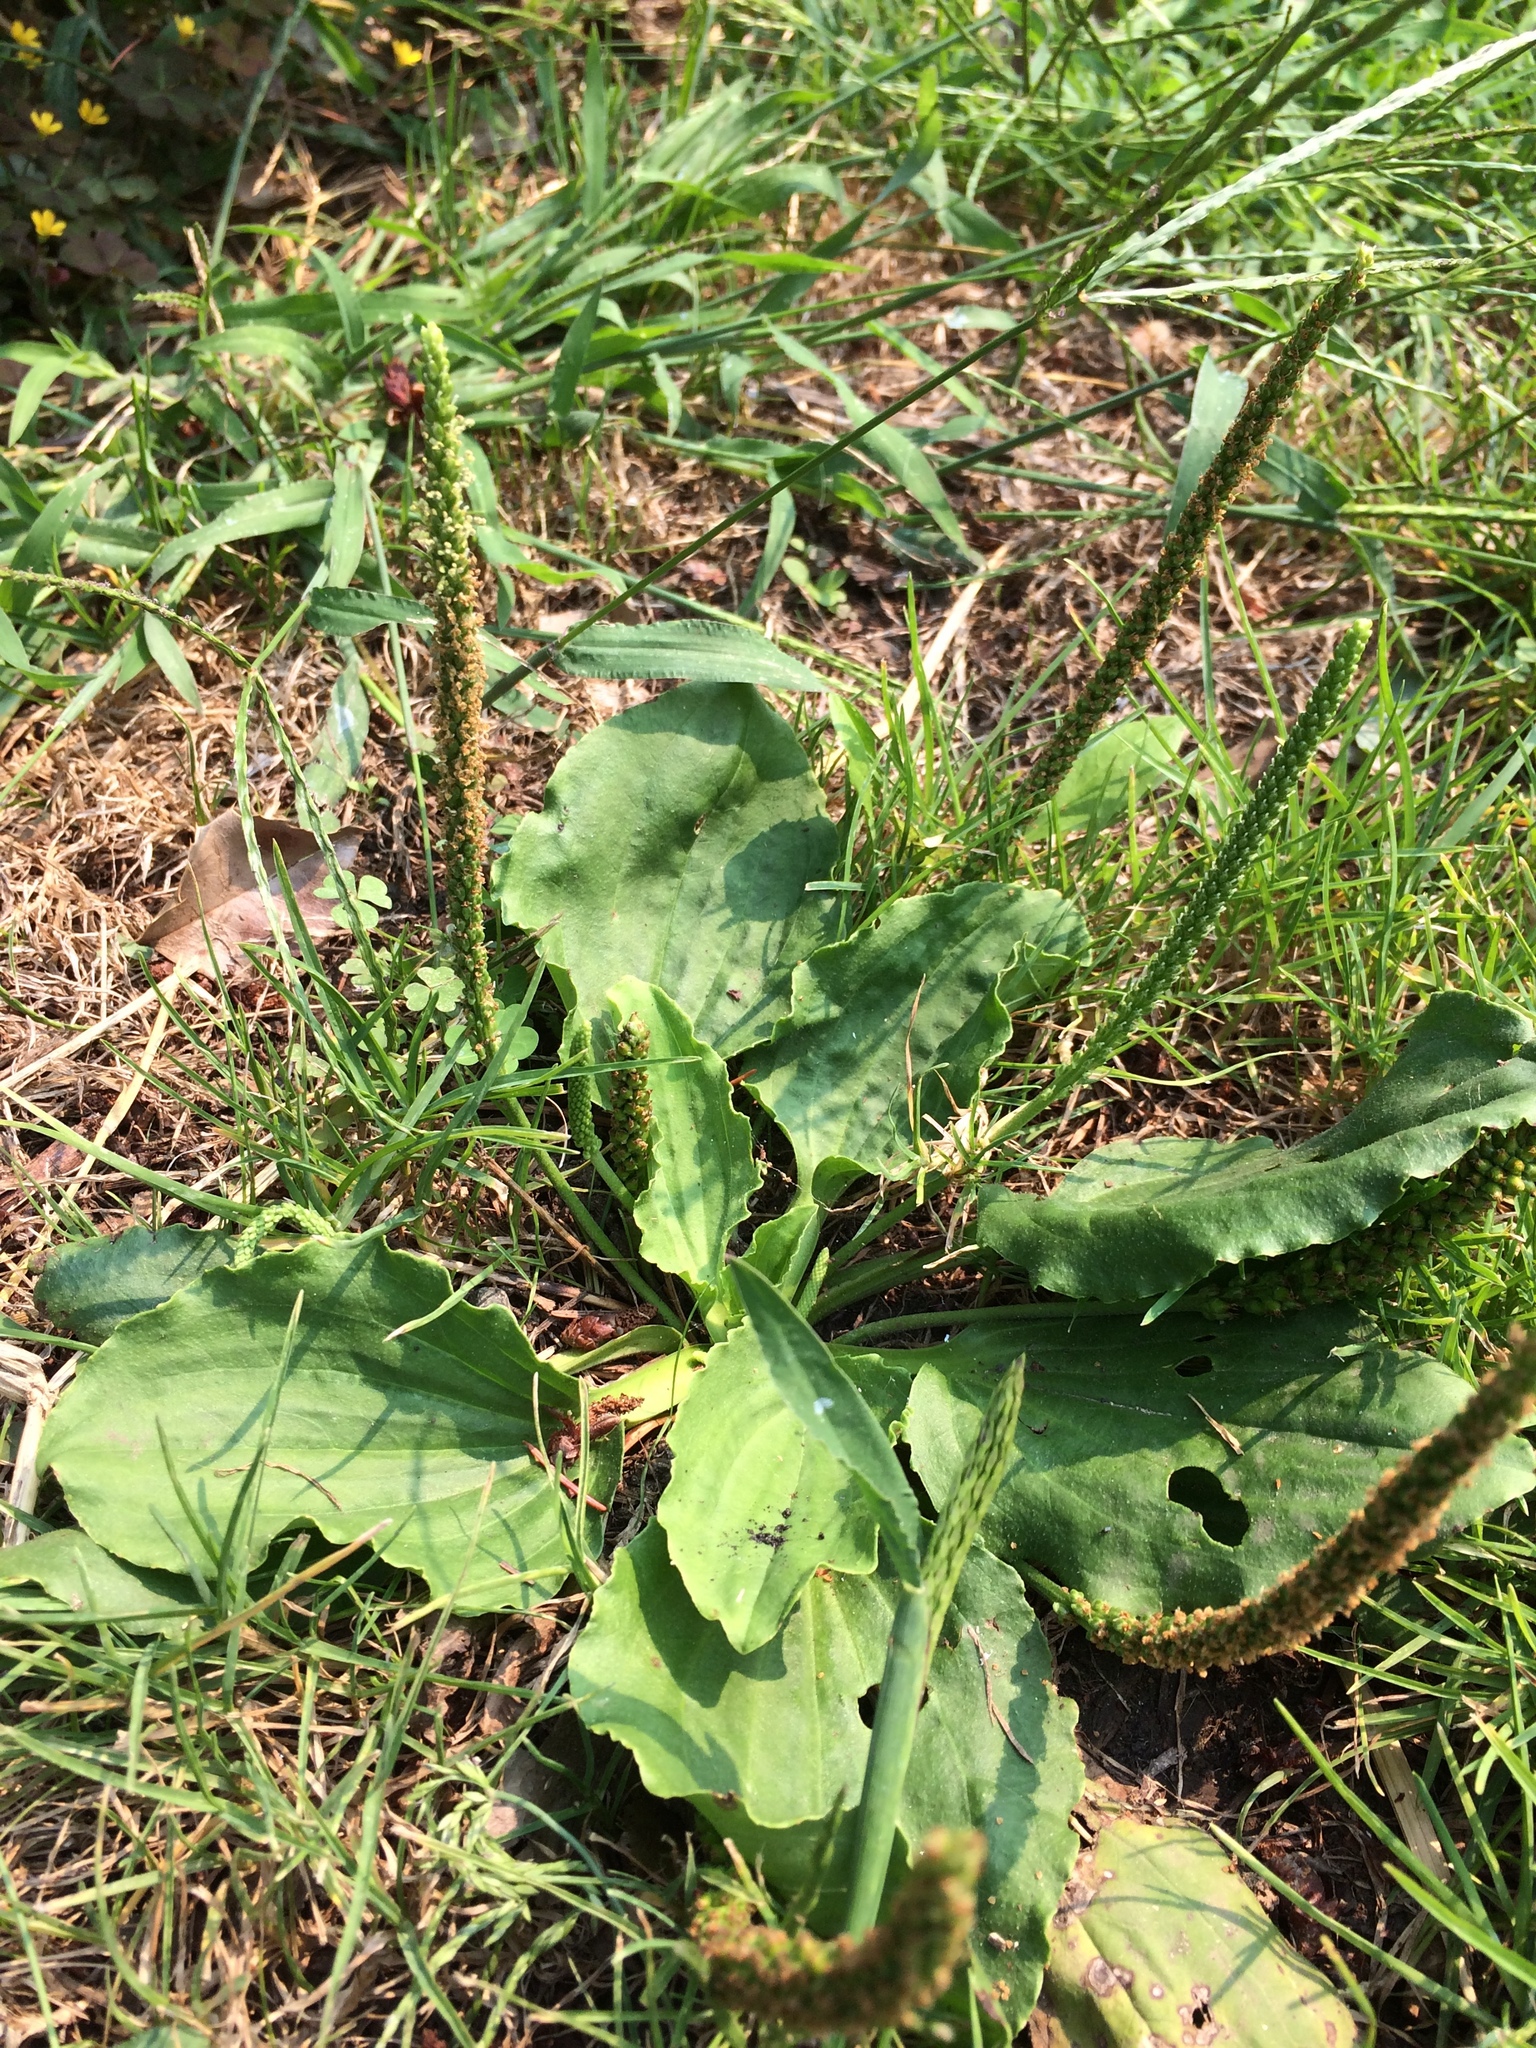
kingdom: Plantae
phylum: Tracheophyta
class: Magnoliopsida
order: Lamiales
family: Plantaginaceae
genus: Plantago
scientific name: Plantago major
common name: Common plantain
